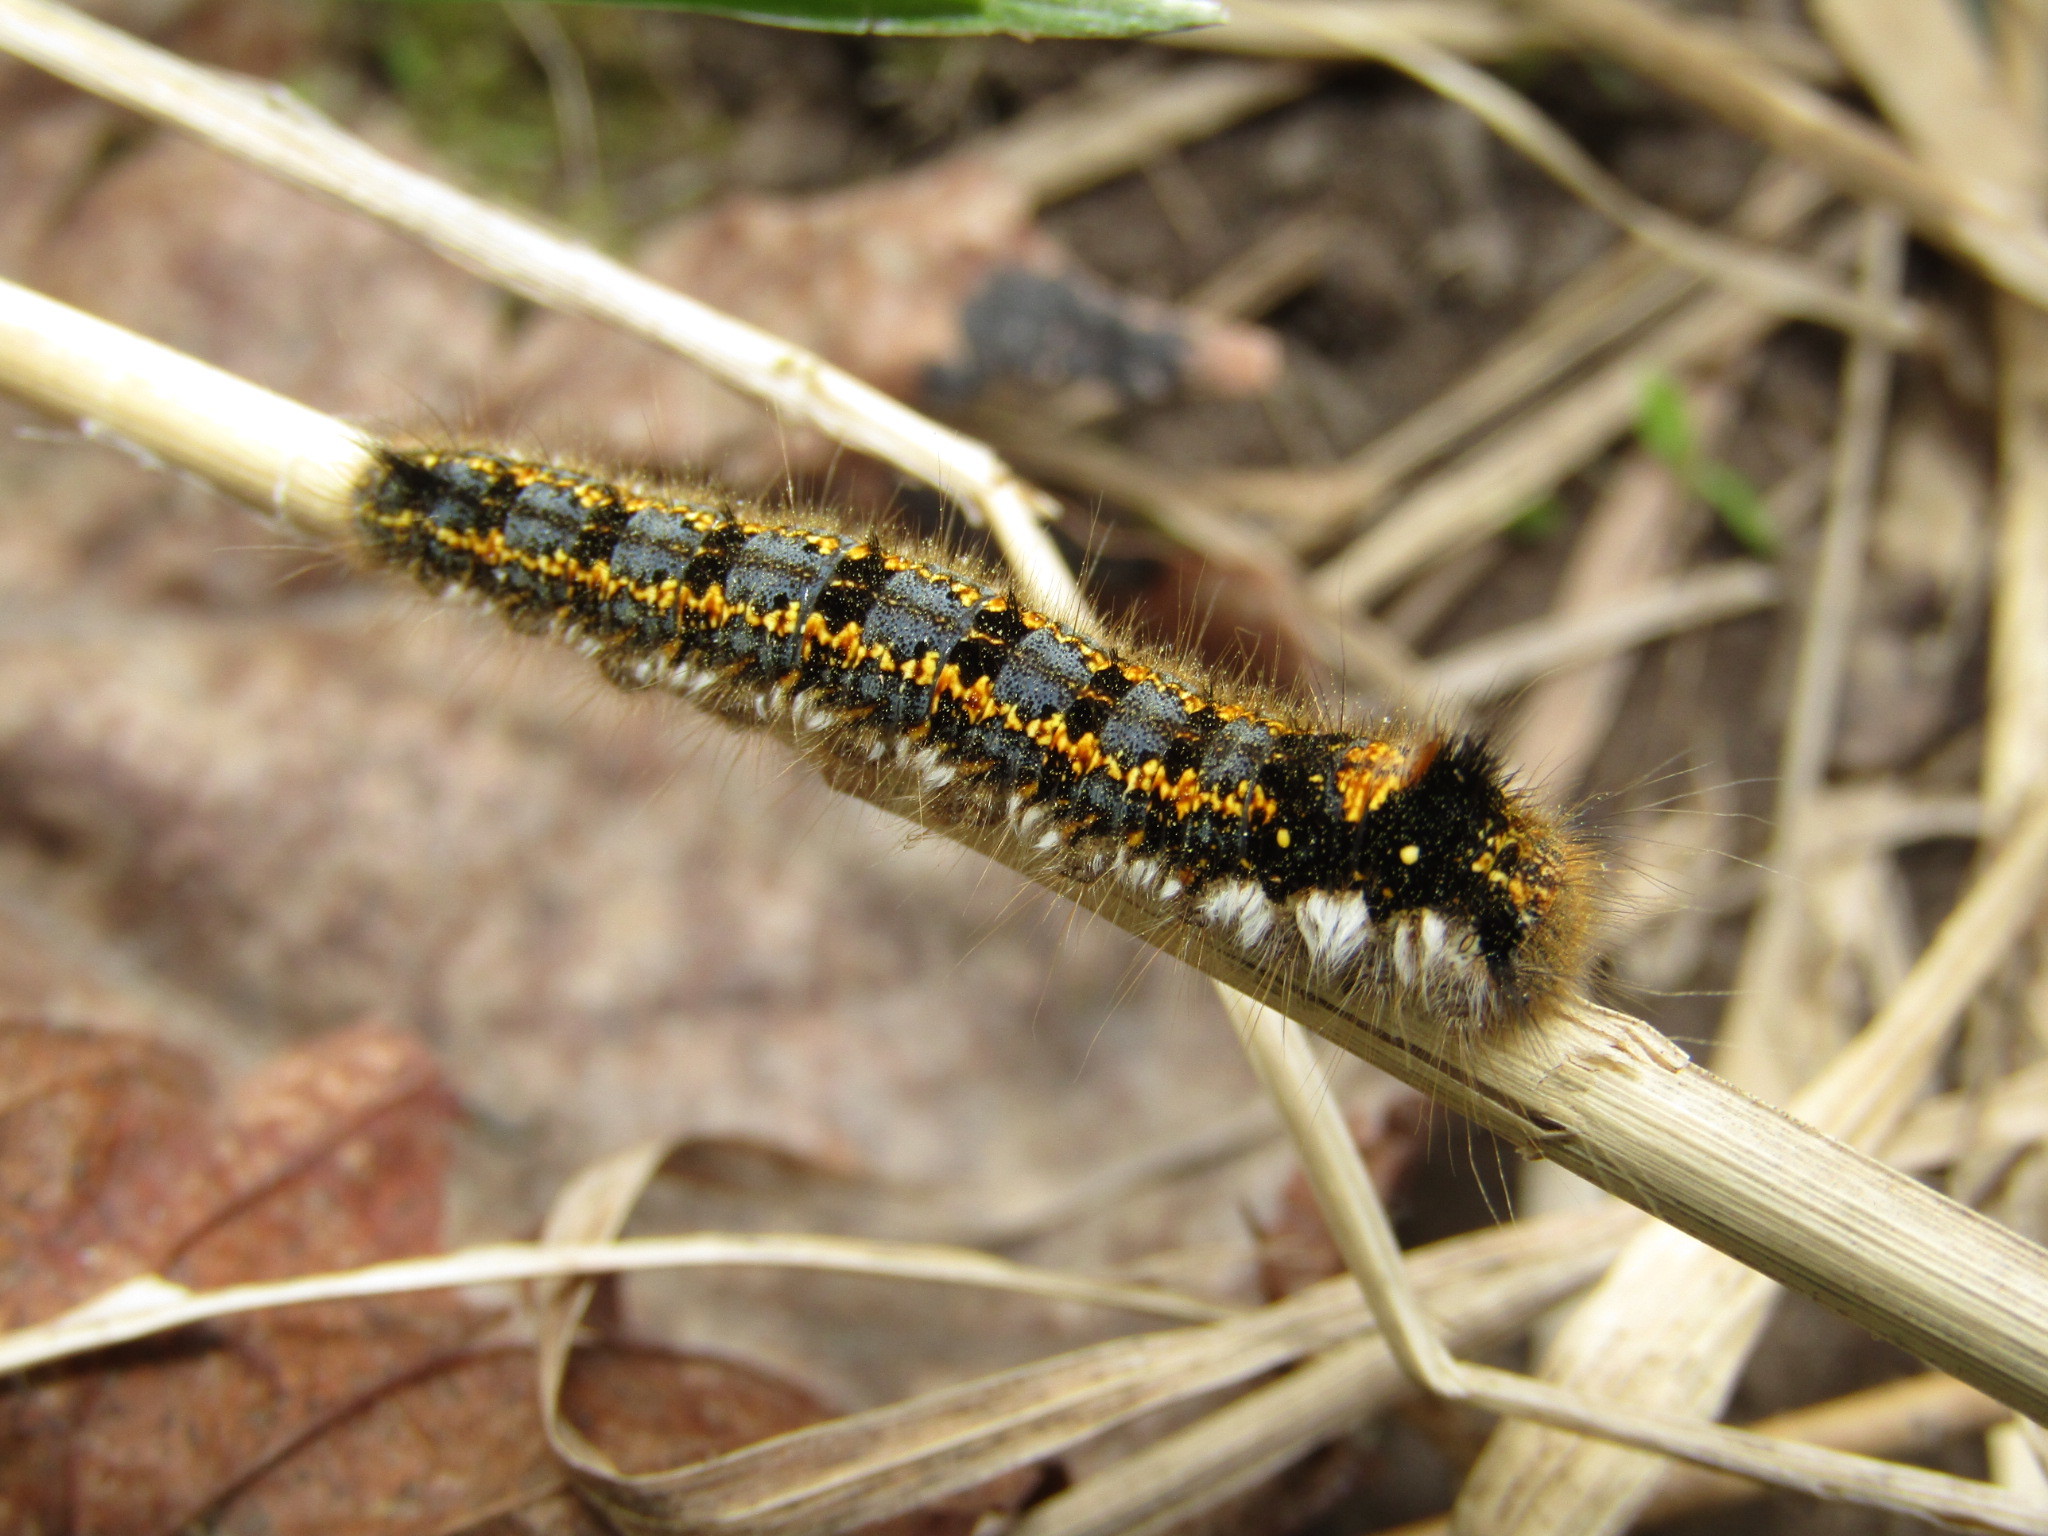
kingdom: Animalia
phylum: Arthropoda
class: Insecta
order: Lepidoptera
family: Lasiocampidae
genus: Euthrix
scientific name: Euthrix potatoria
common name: Drinker
